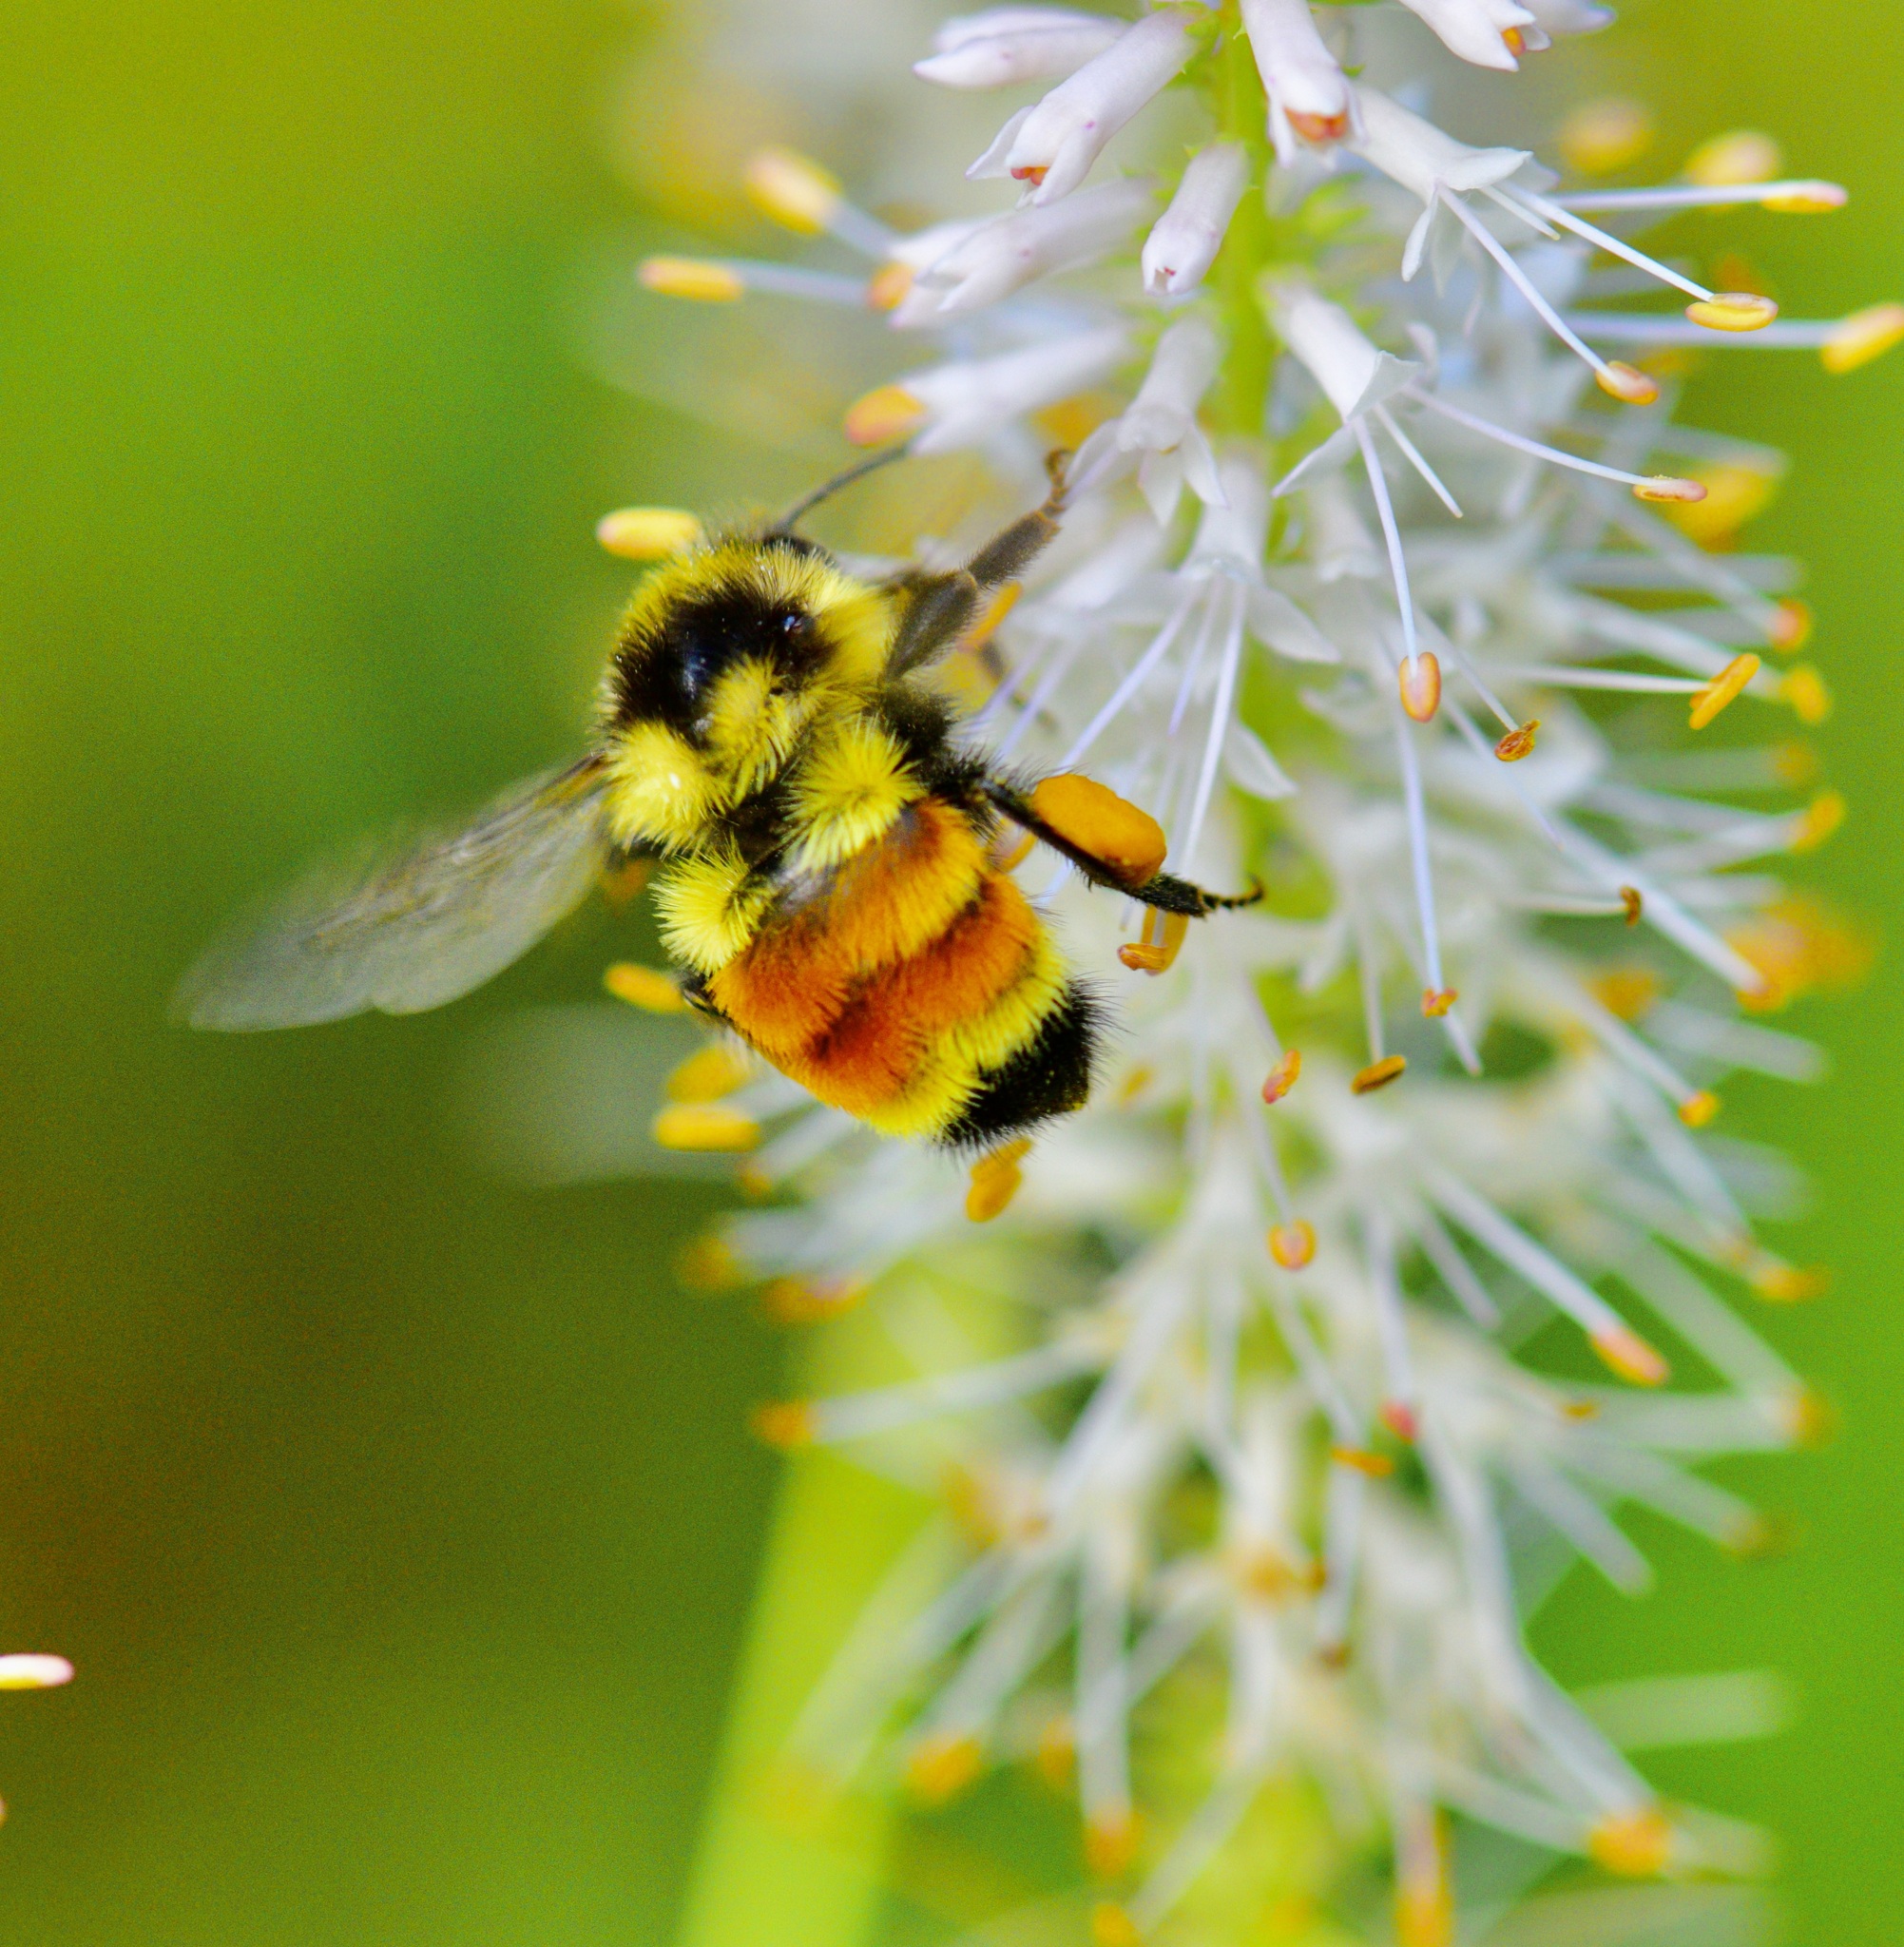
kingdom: Animalia
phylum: Arthropoda
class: Insecta
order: Hymenoptera
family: Apidae
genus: Bombus
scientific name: Bombus ternarius
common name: Tri-colored bumble bee
